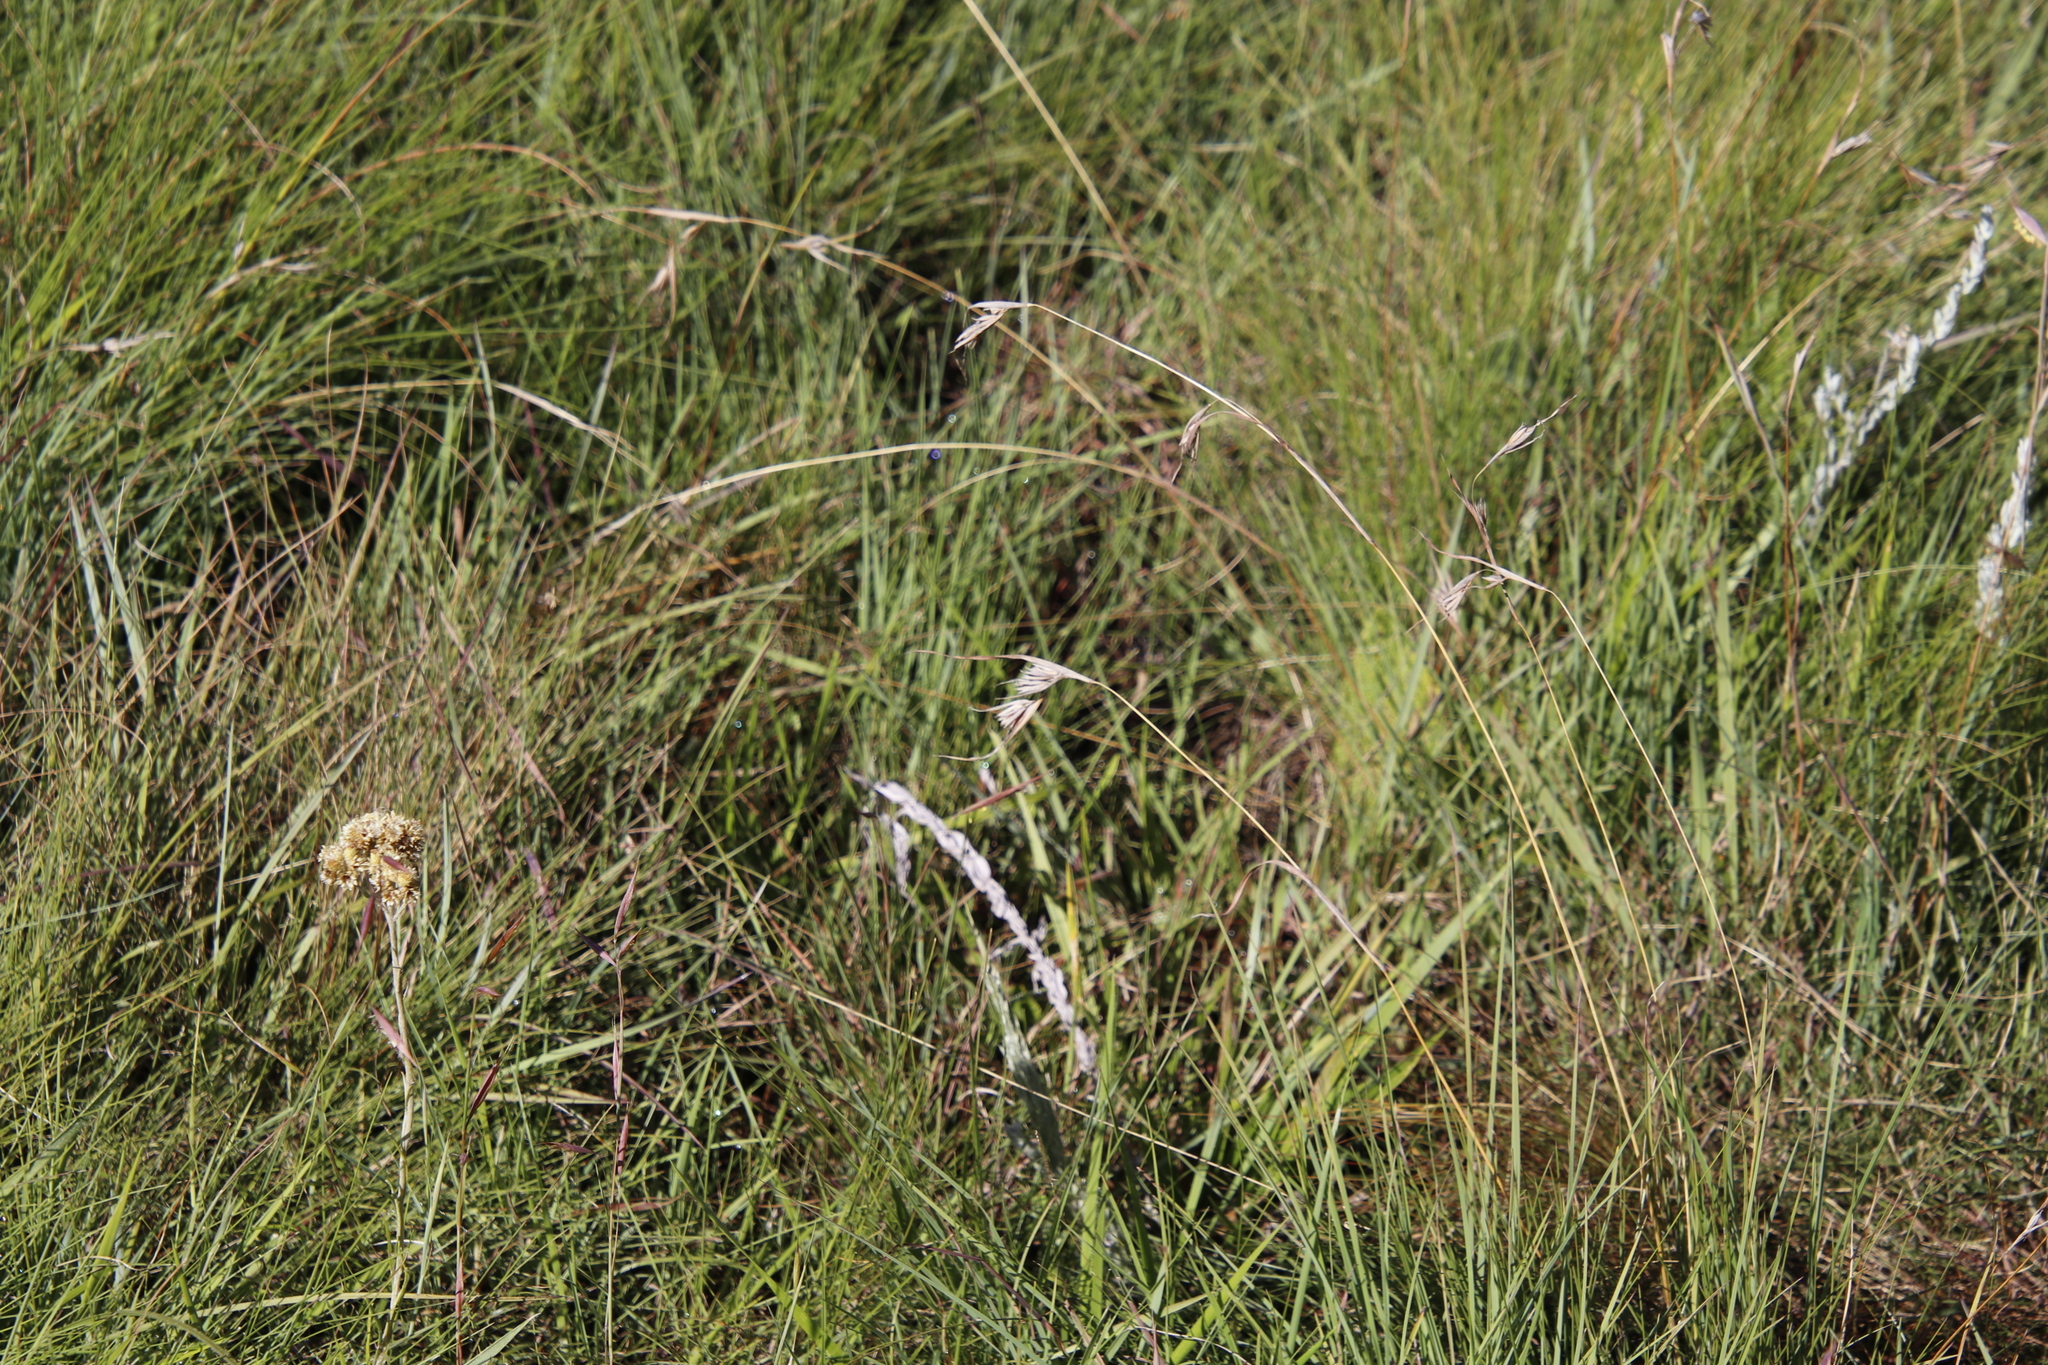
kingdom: Plantae
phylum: Tracheophyta
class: Liliopsida
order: Poales
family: Poaceae
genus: Themeda
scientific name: Themeda triandra
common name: Kangaroo grass
